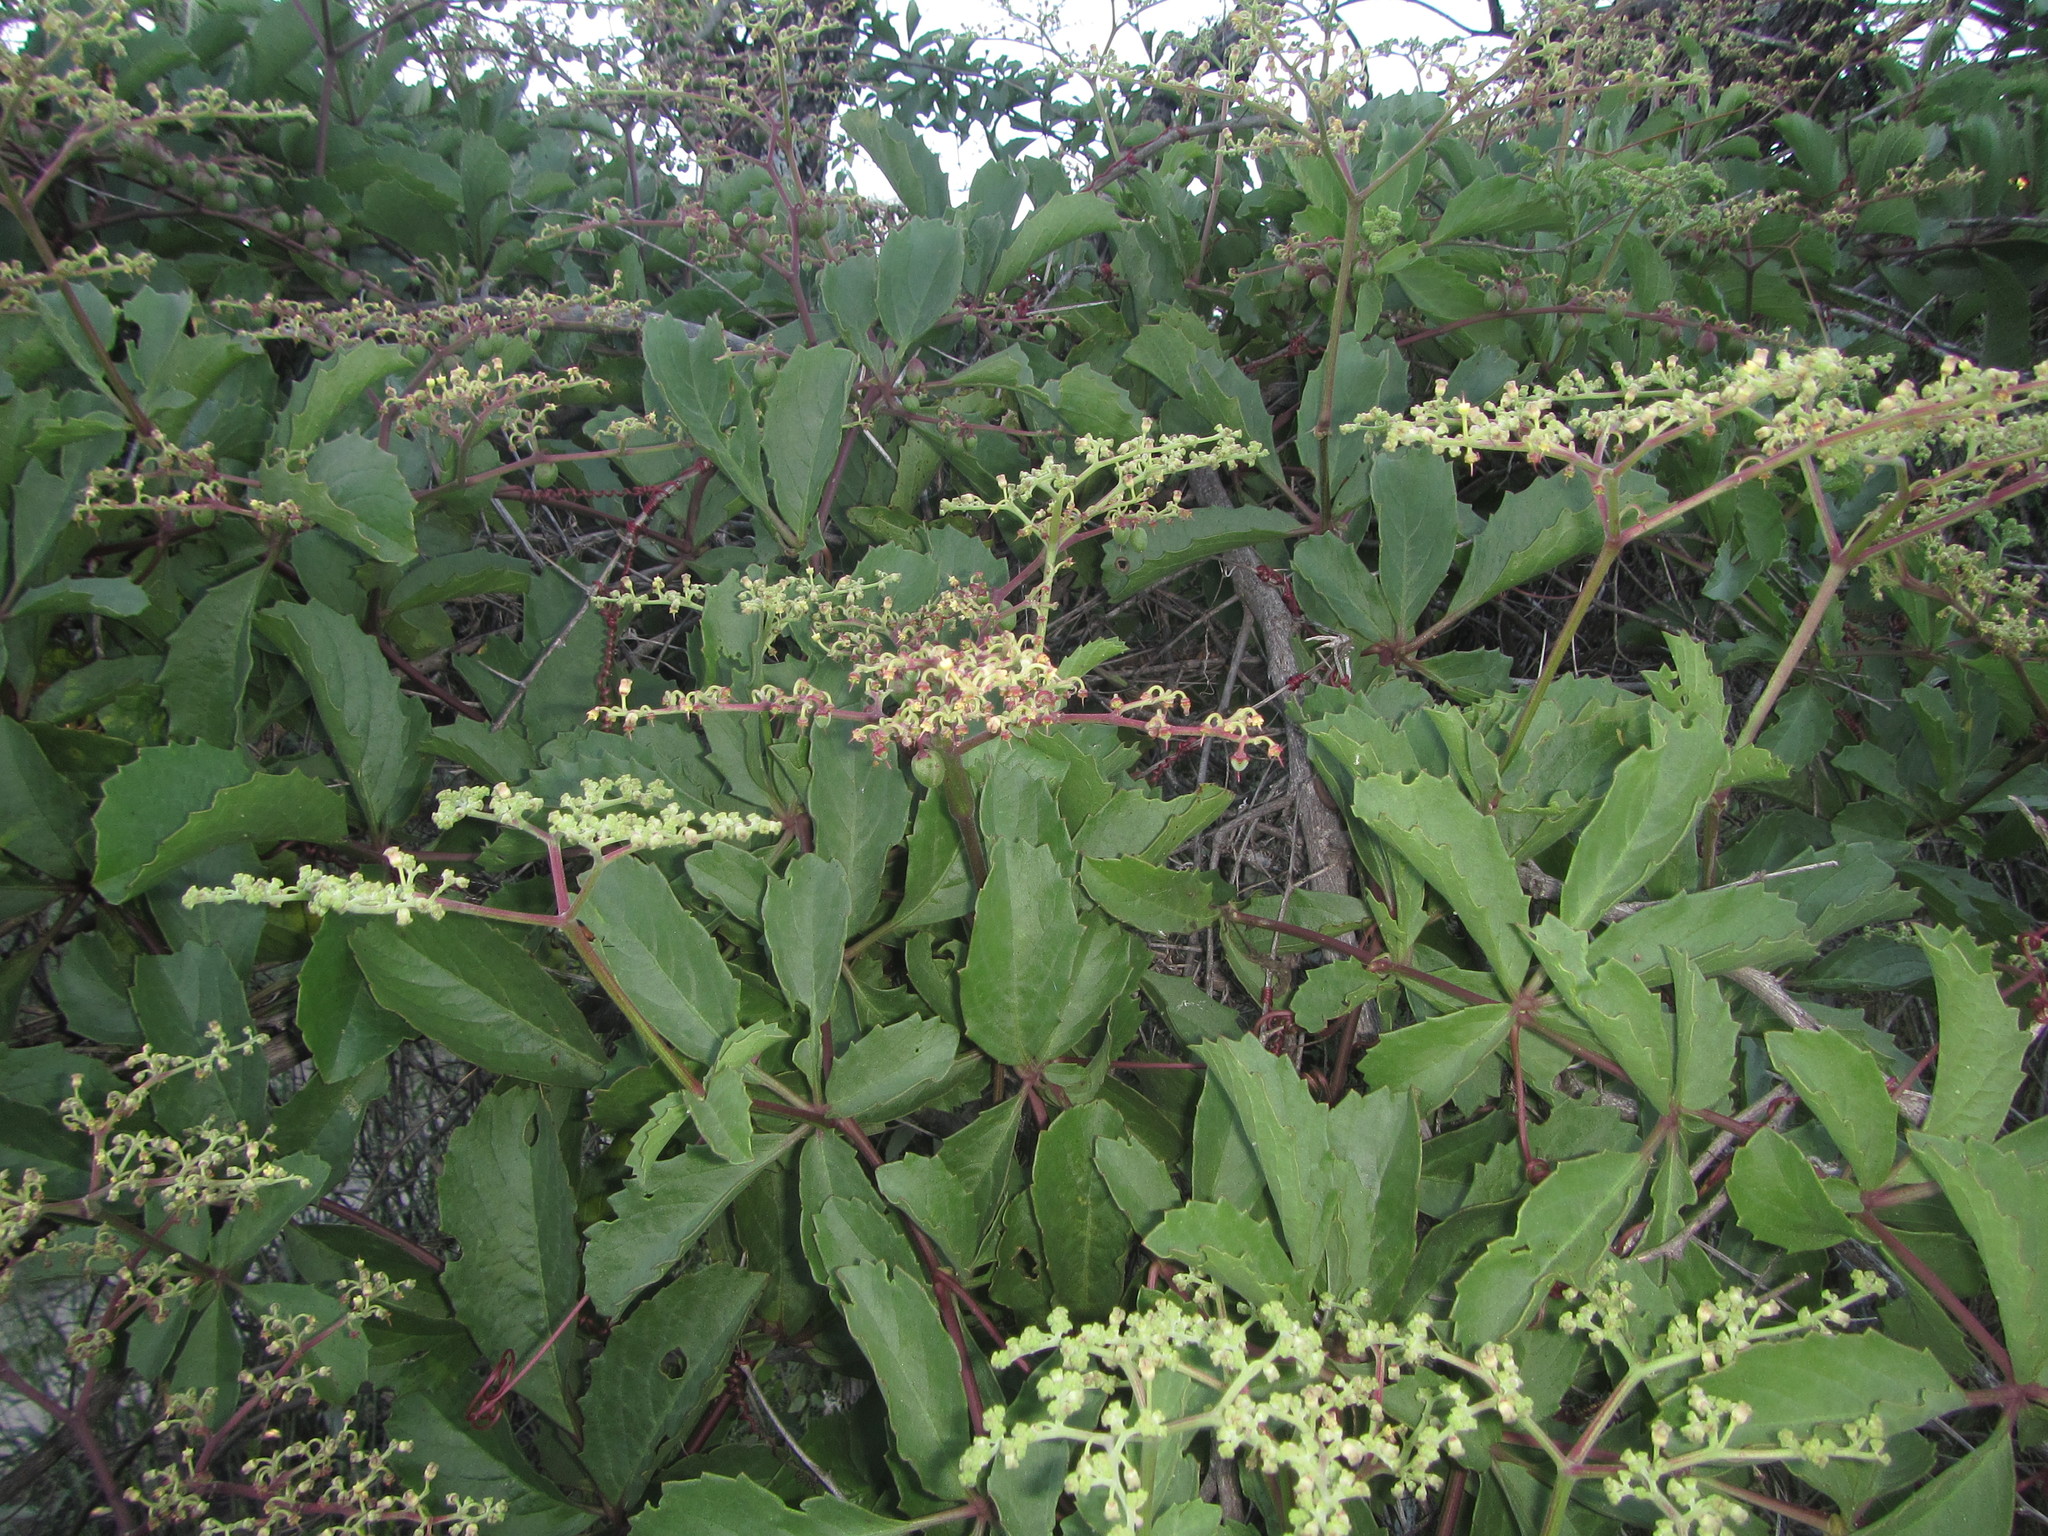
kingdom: Plantae
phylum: Tracheophyta
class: Magnoliopsida
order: Vitales
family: Vitaceae
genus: Cyphostemma
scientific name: Cyphostemma congestum
